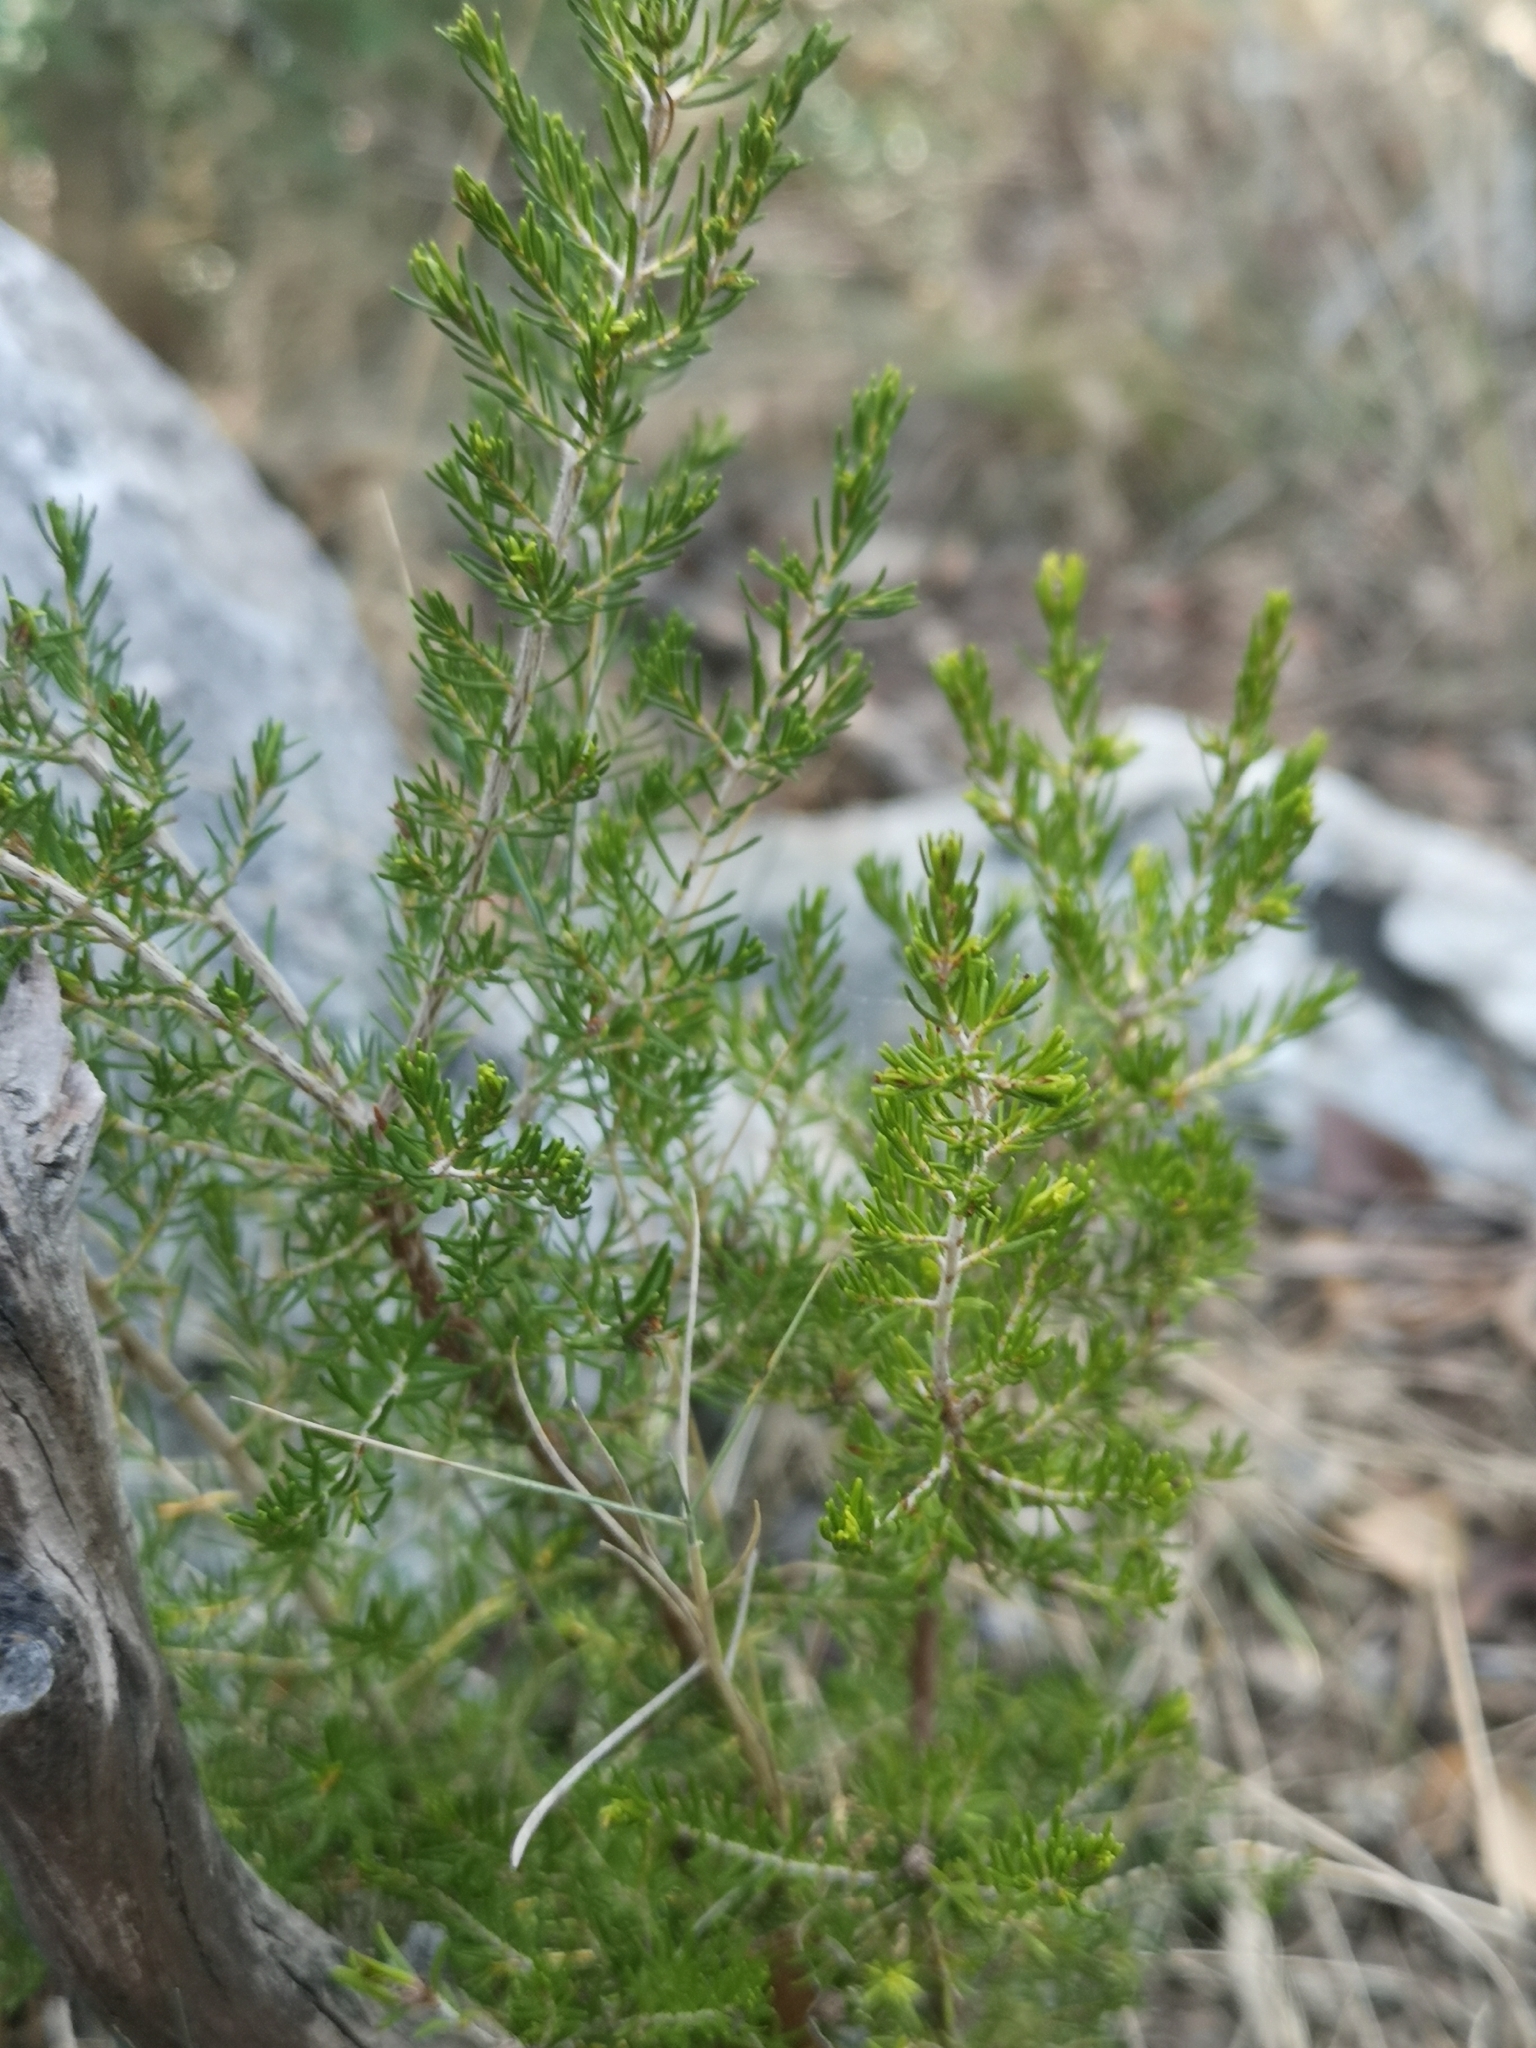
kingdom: Plantae
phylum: Tracheophyta
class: Magnoliopsida
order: Ericales
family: Ericaceae
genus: Erica
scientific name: Erica arborea
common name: Tree heath
